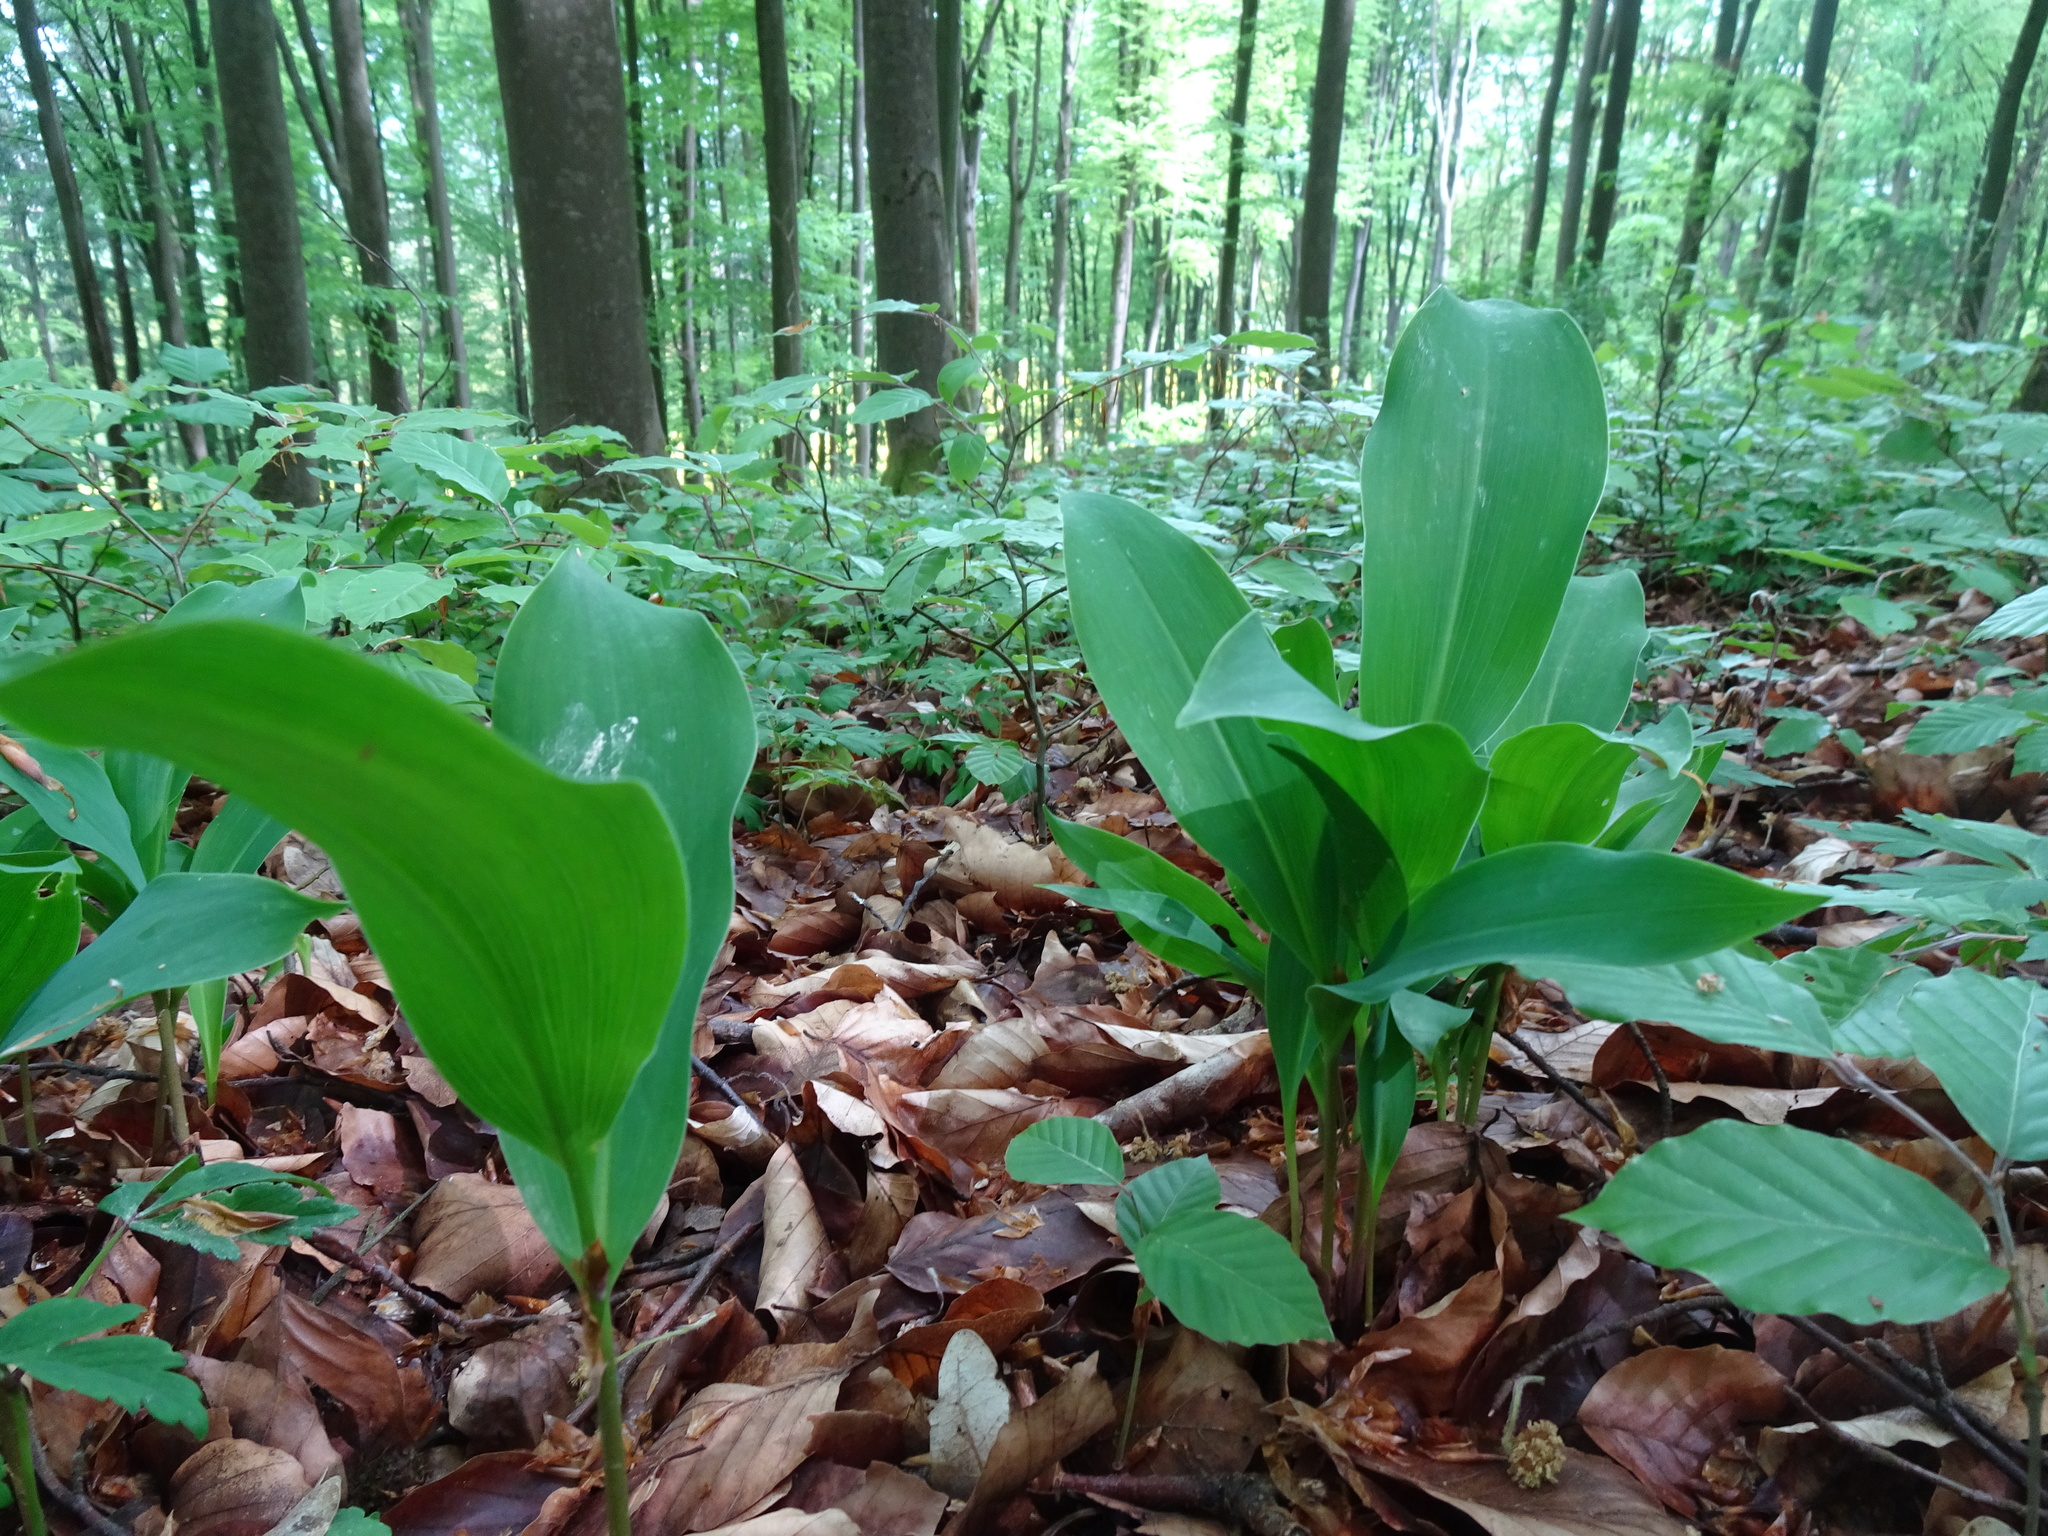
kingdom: Plantae
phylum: Tracheophyta
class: Liliopsida
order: Asparagales
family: Asparagaceae
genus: Convallaria
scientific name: Convallaria majalis
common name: Lily-of-the-valley
